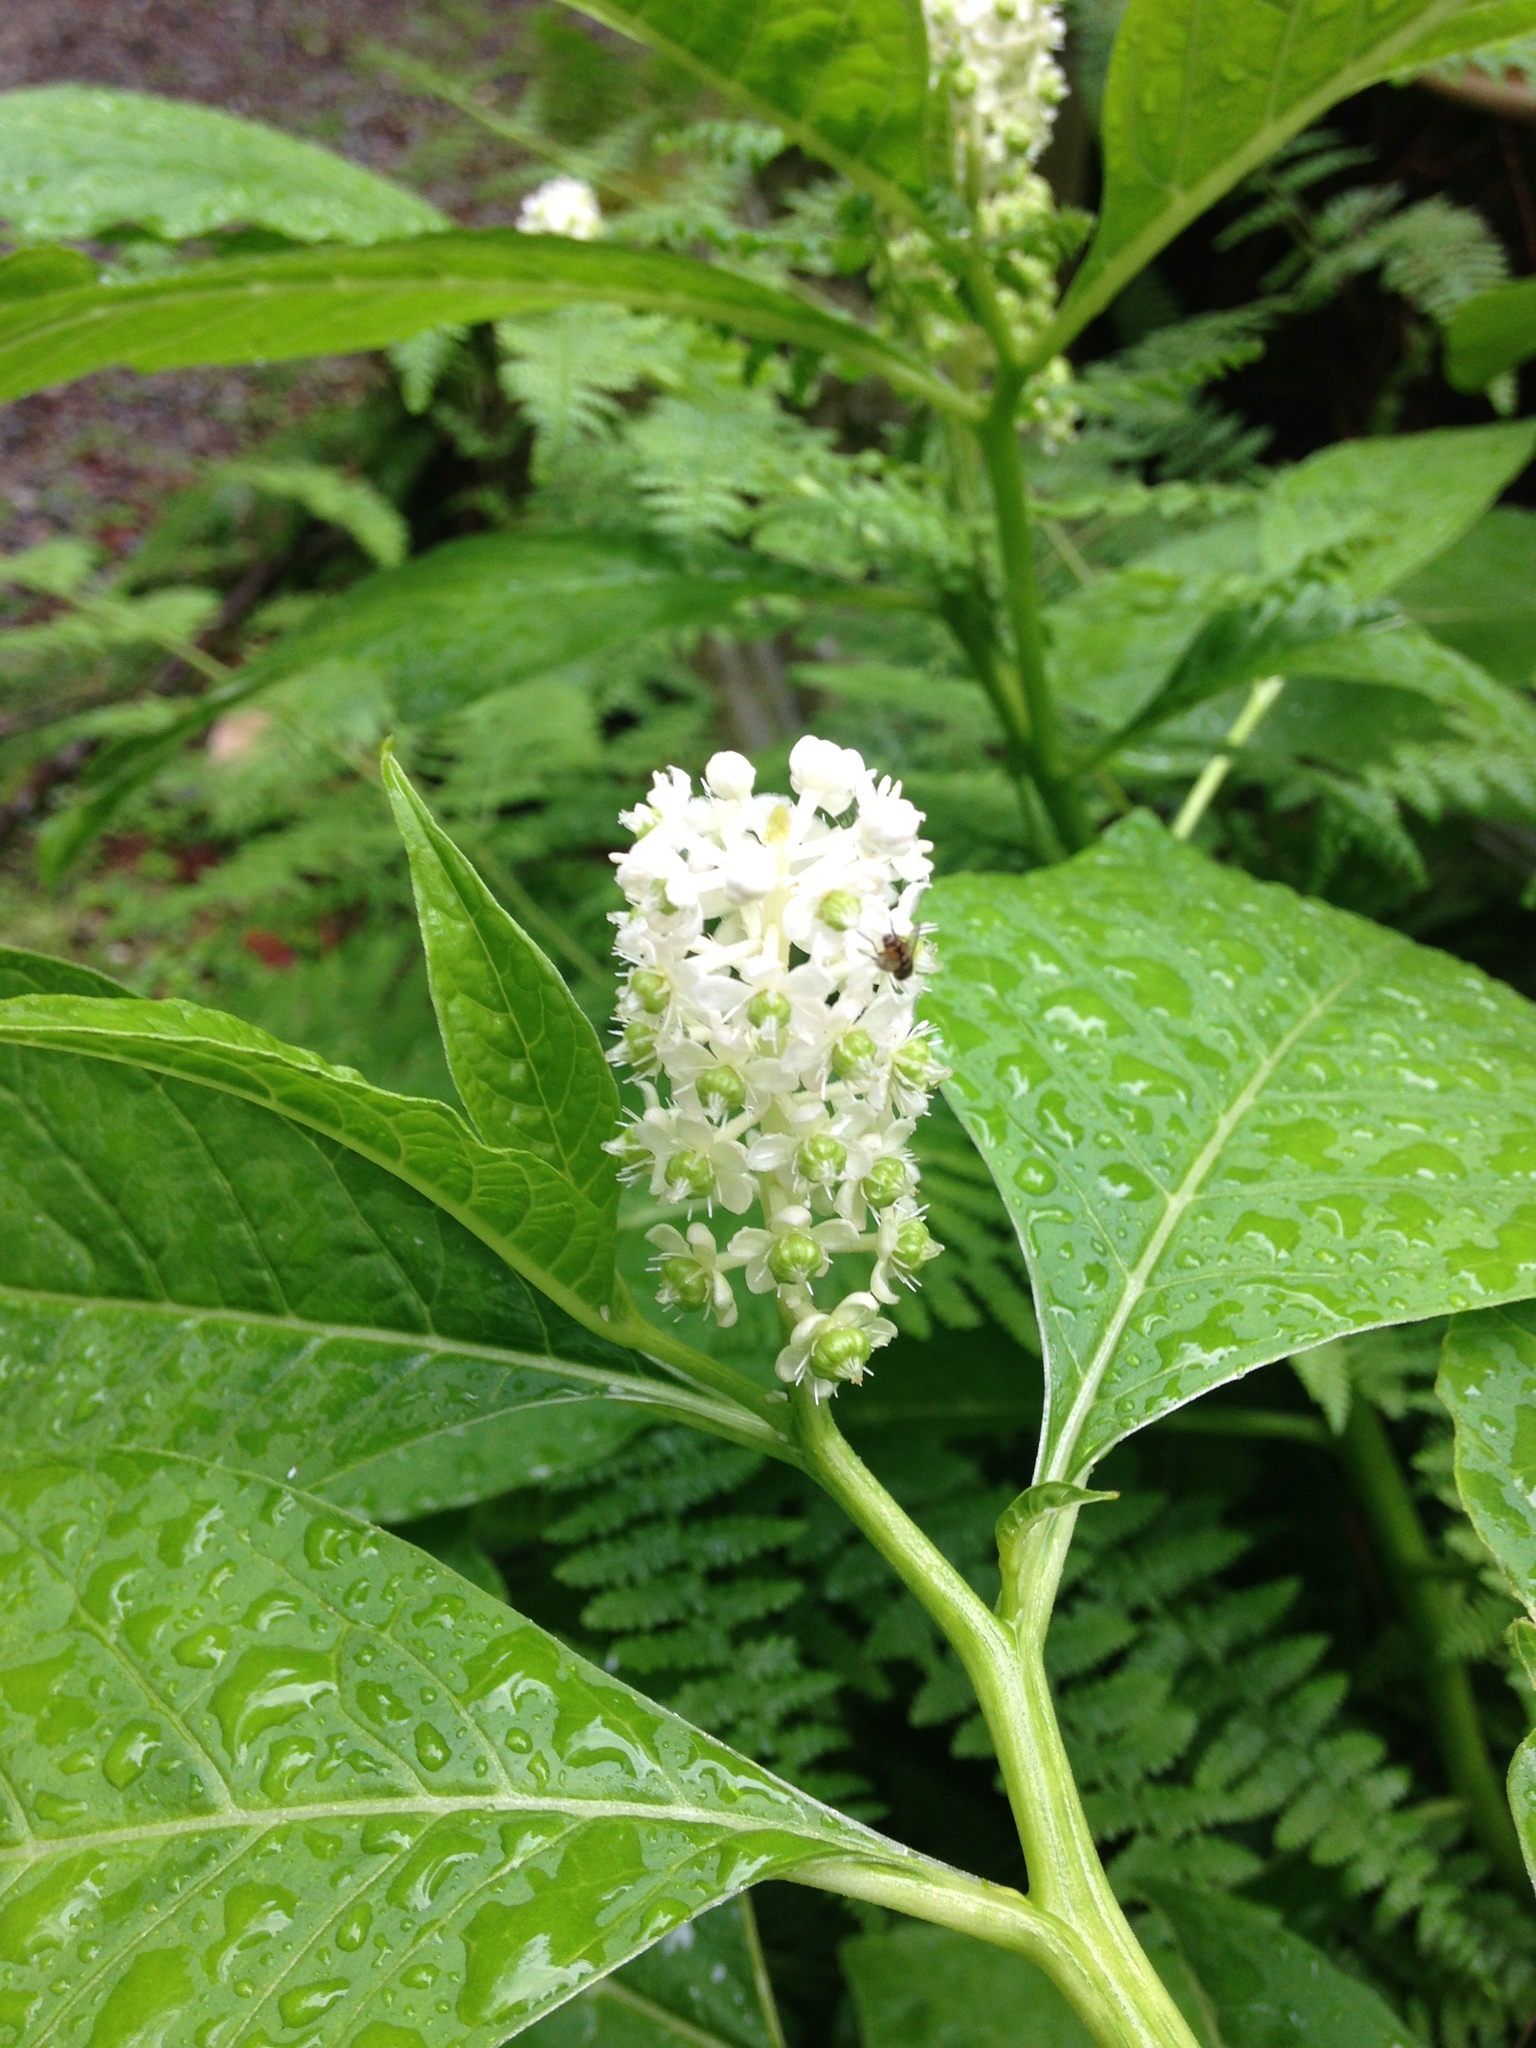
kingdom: Plantae
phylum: Tracheophyta
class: Magnoliopsida
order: Caryophyllales
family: Phytolaccaceae
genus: Phytolacca
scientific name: Phytolacca japonica
